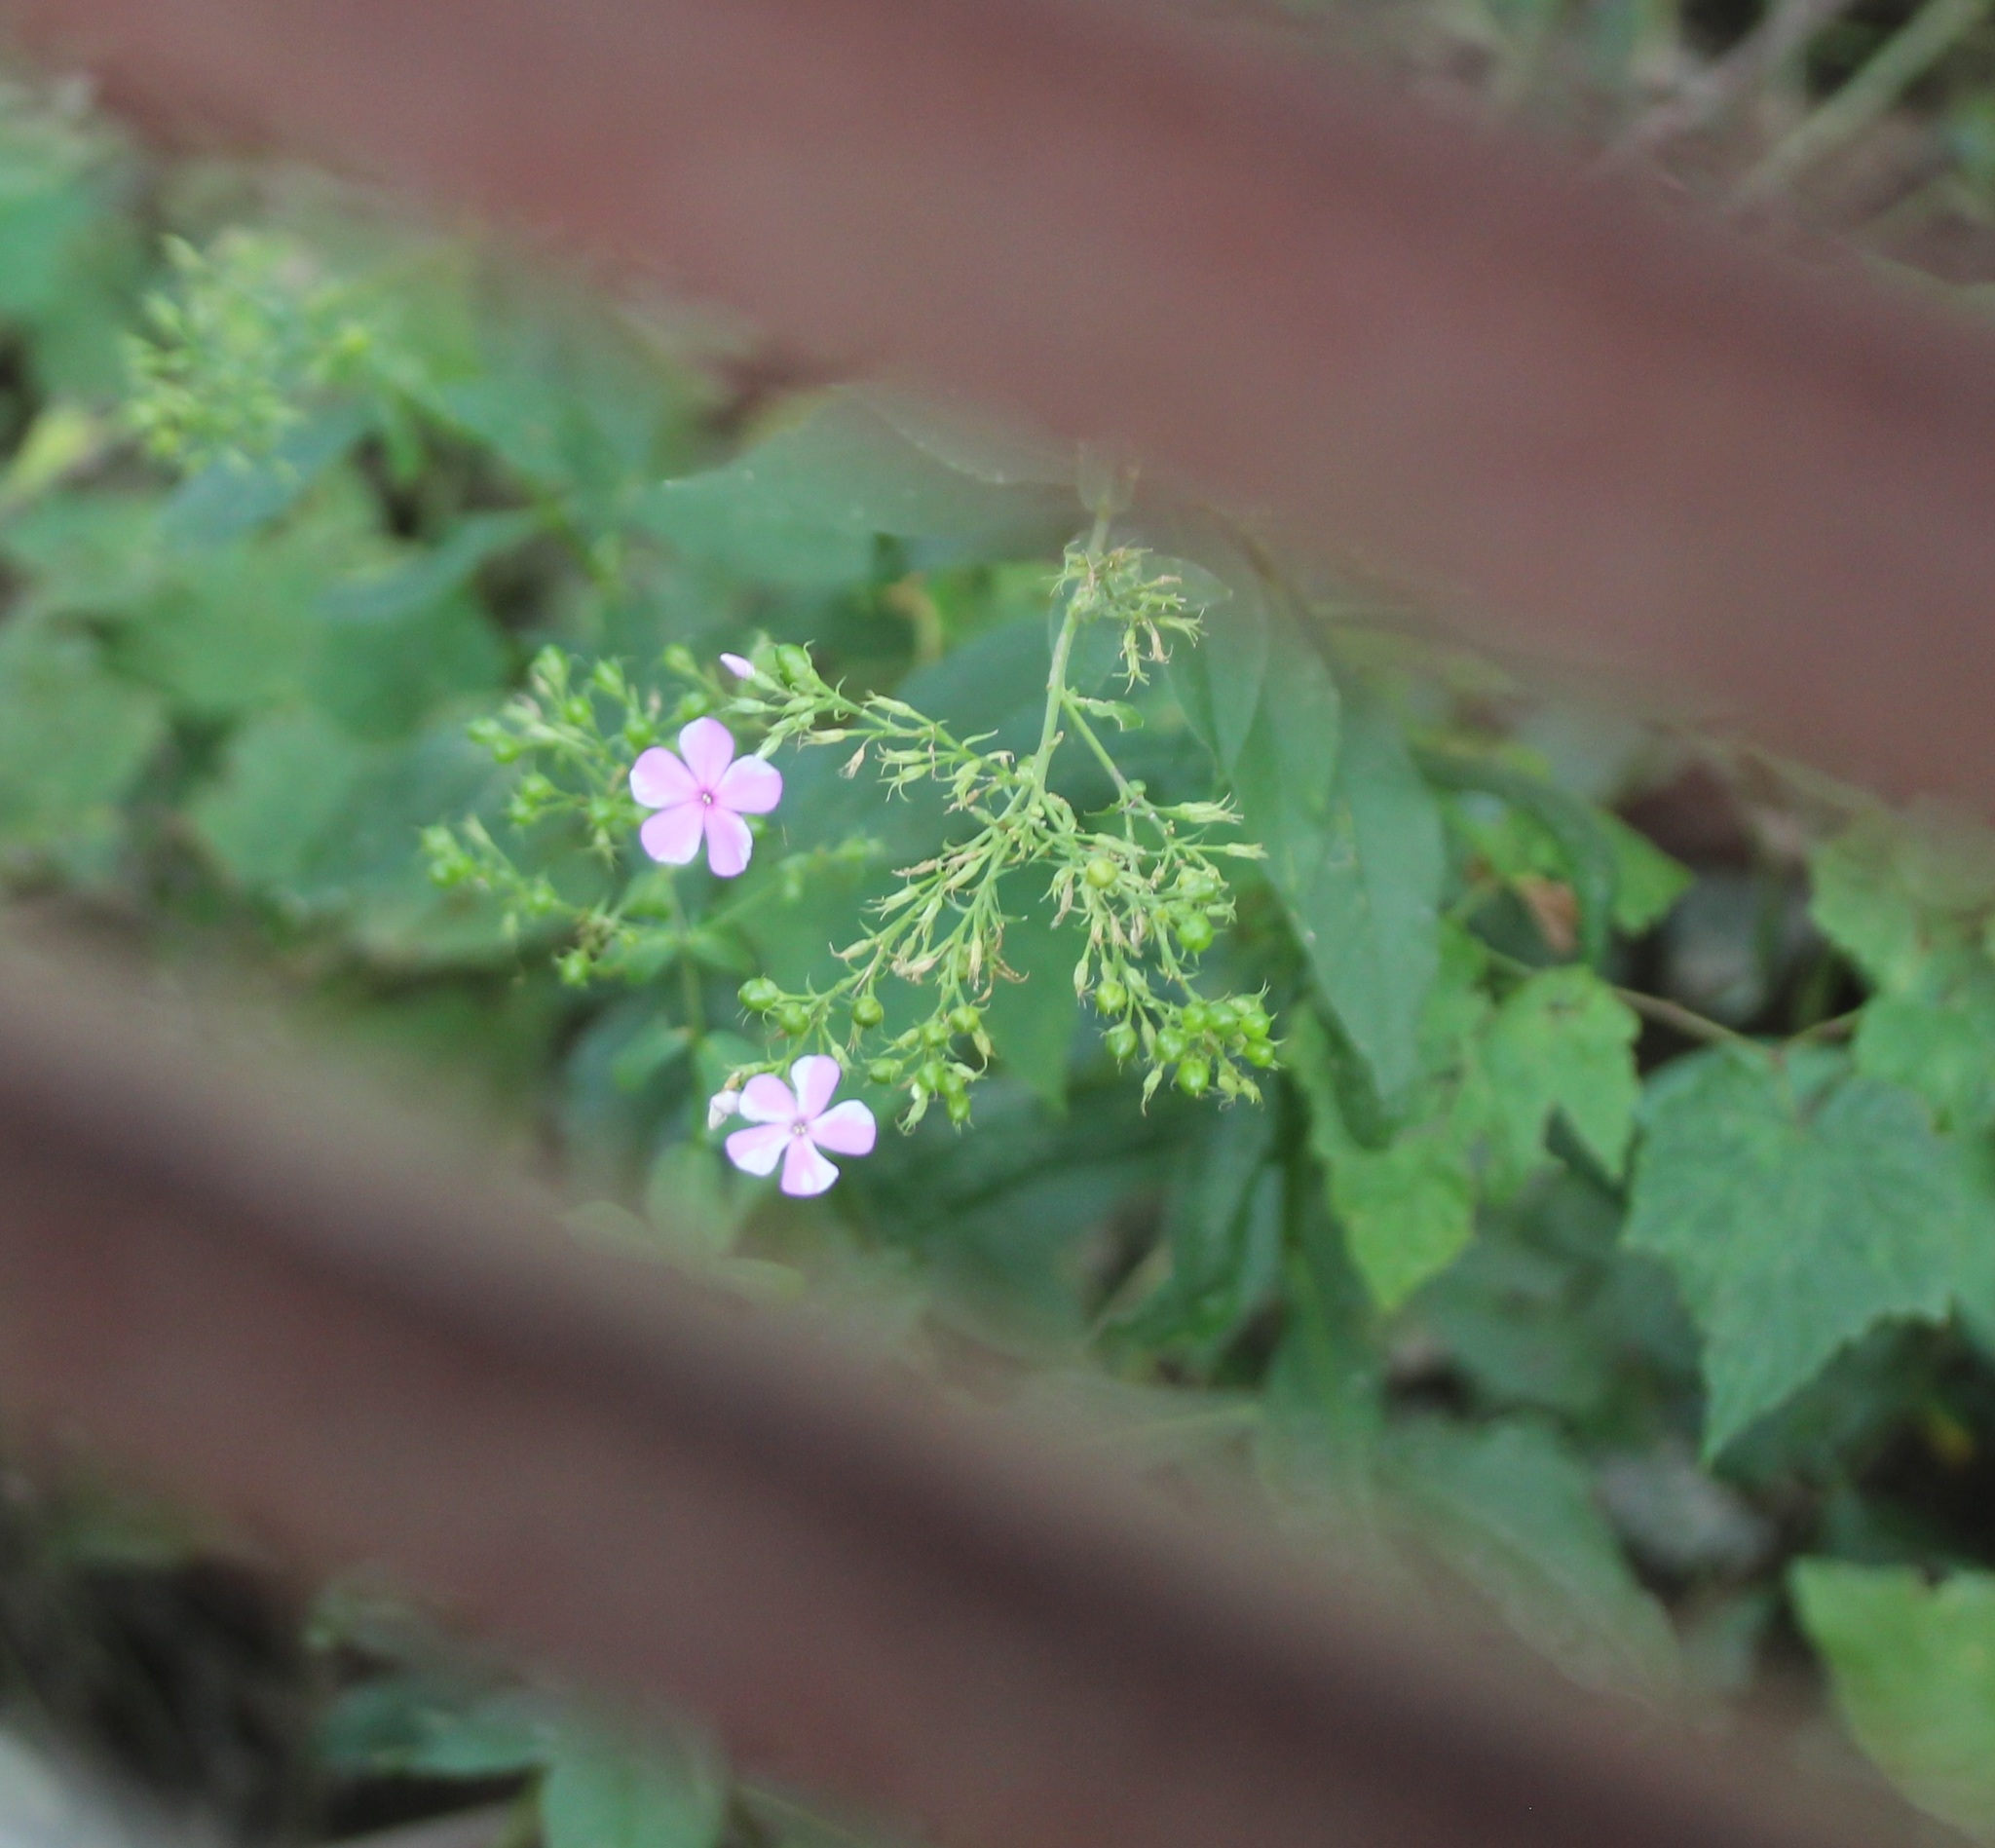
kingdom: Plantae
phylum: Tracheophyta
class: Magnoliopsida
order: Ericales
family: Polemoniaceae
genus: Phlox
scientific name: Phlox paniculata
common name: Fall phlox
